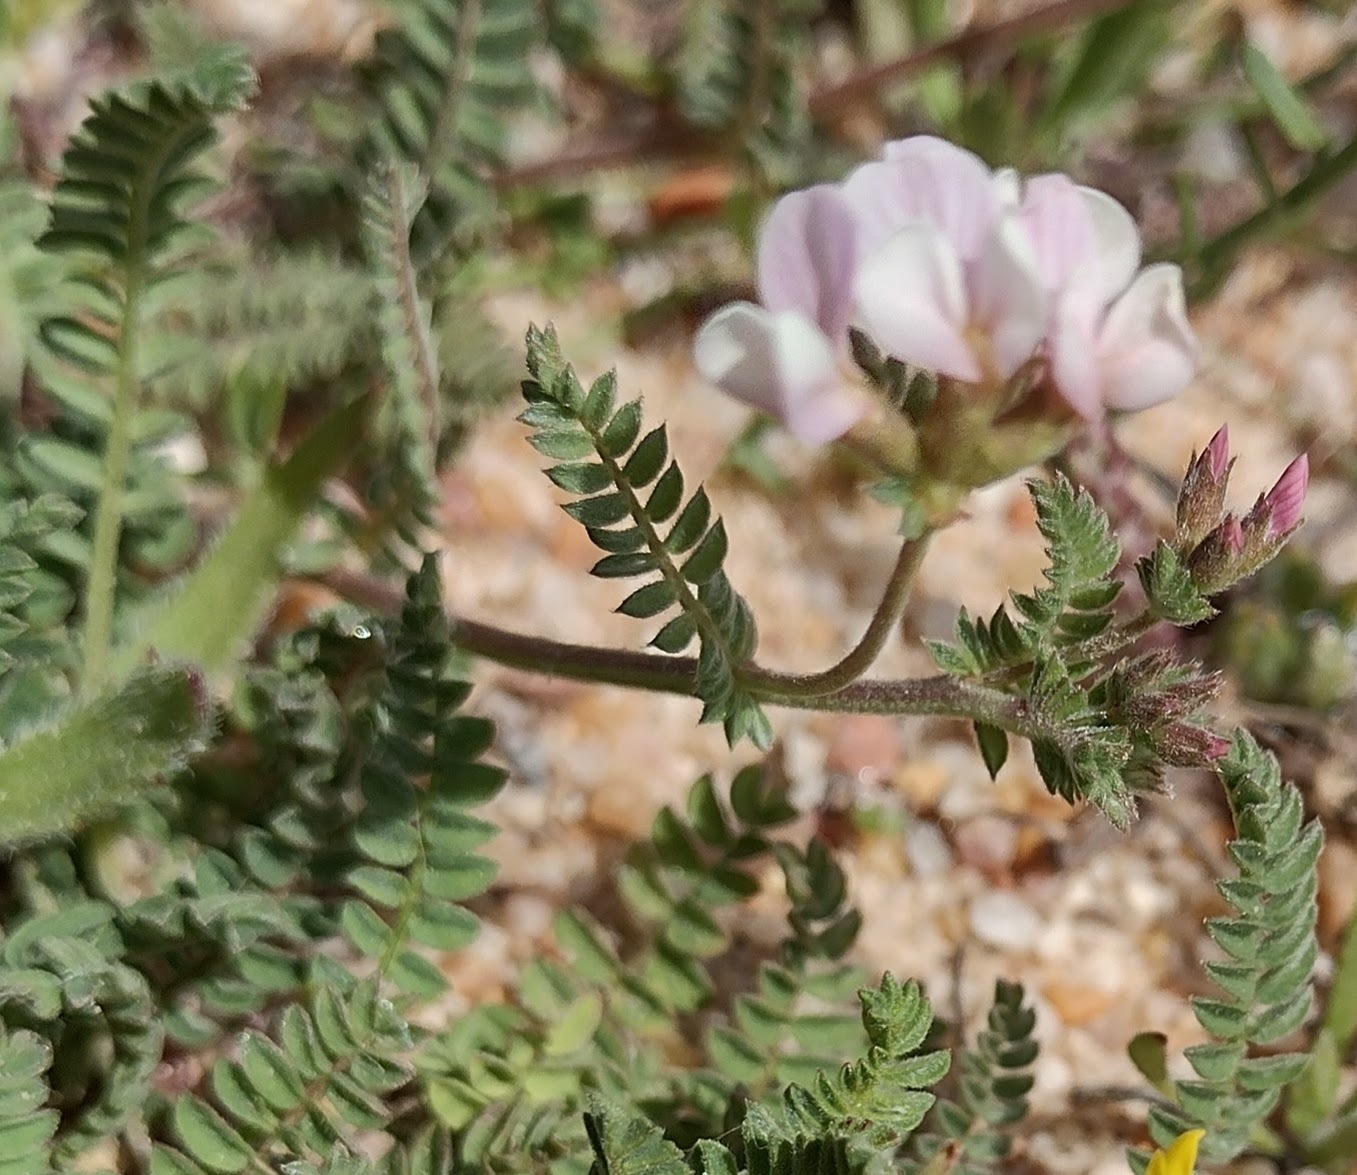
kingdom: Plantae
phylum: Tracheophyta
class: Magnoliopsida
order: Fabales
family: Fabaceae
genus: Ornithopus
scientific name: Ornithopus sativus
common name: Serradella
